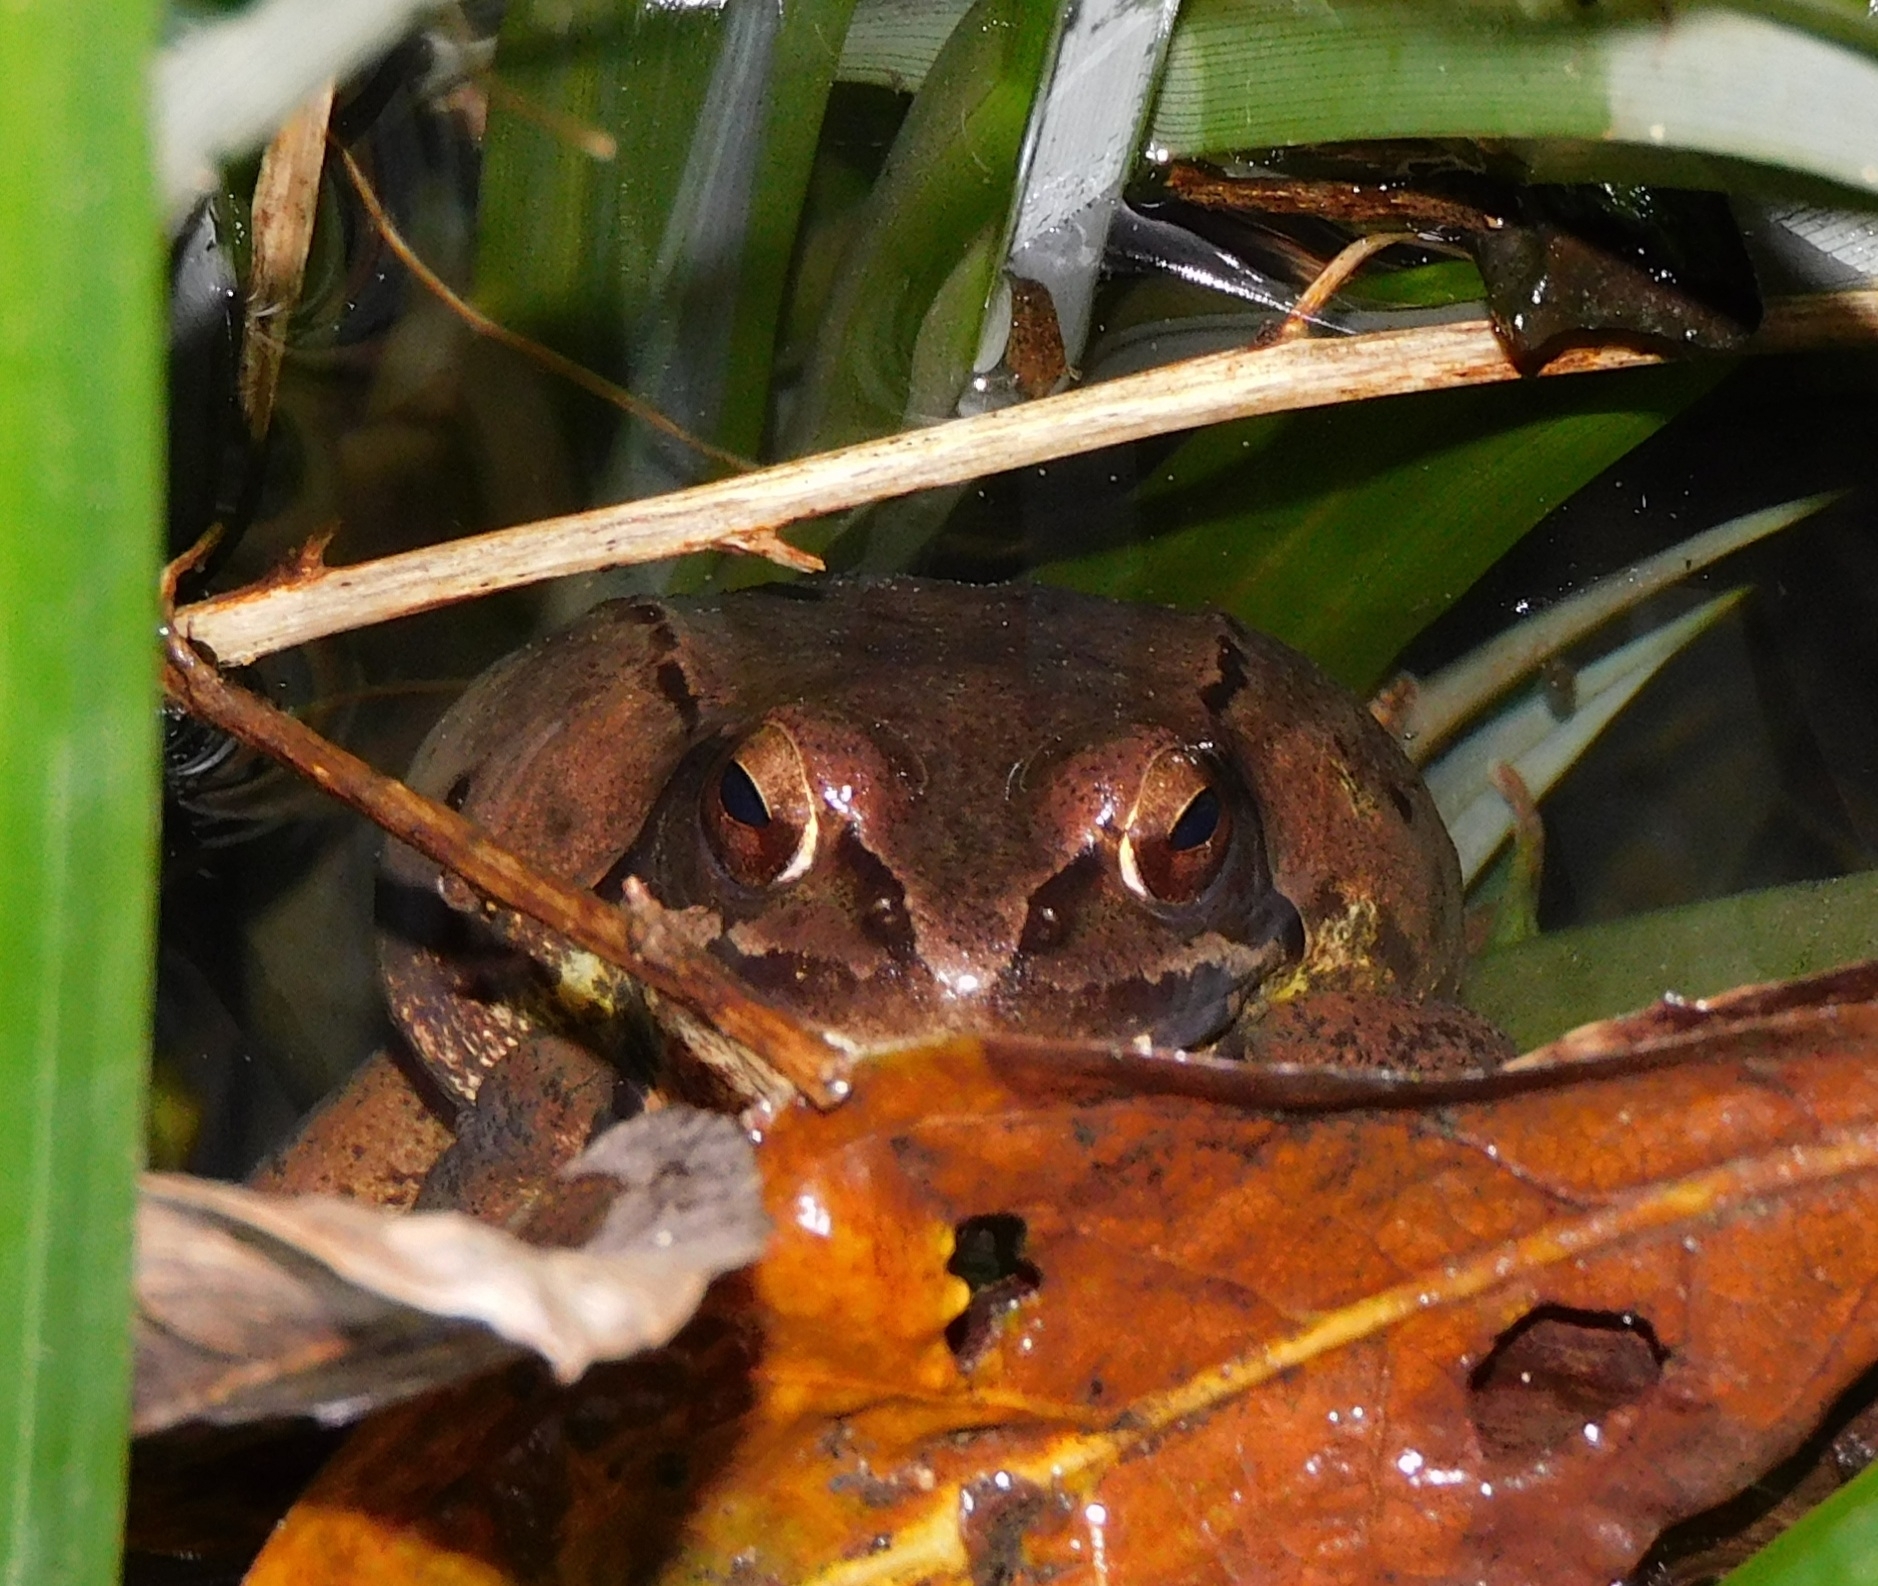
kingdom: Animalia
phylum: Chordata
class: Amphibia
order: Anura
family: Ranidae
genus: Rana
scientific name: Rana dalmatina
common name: Agile frog
